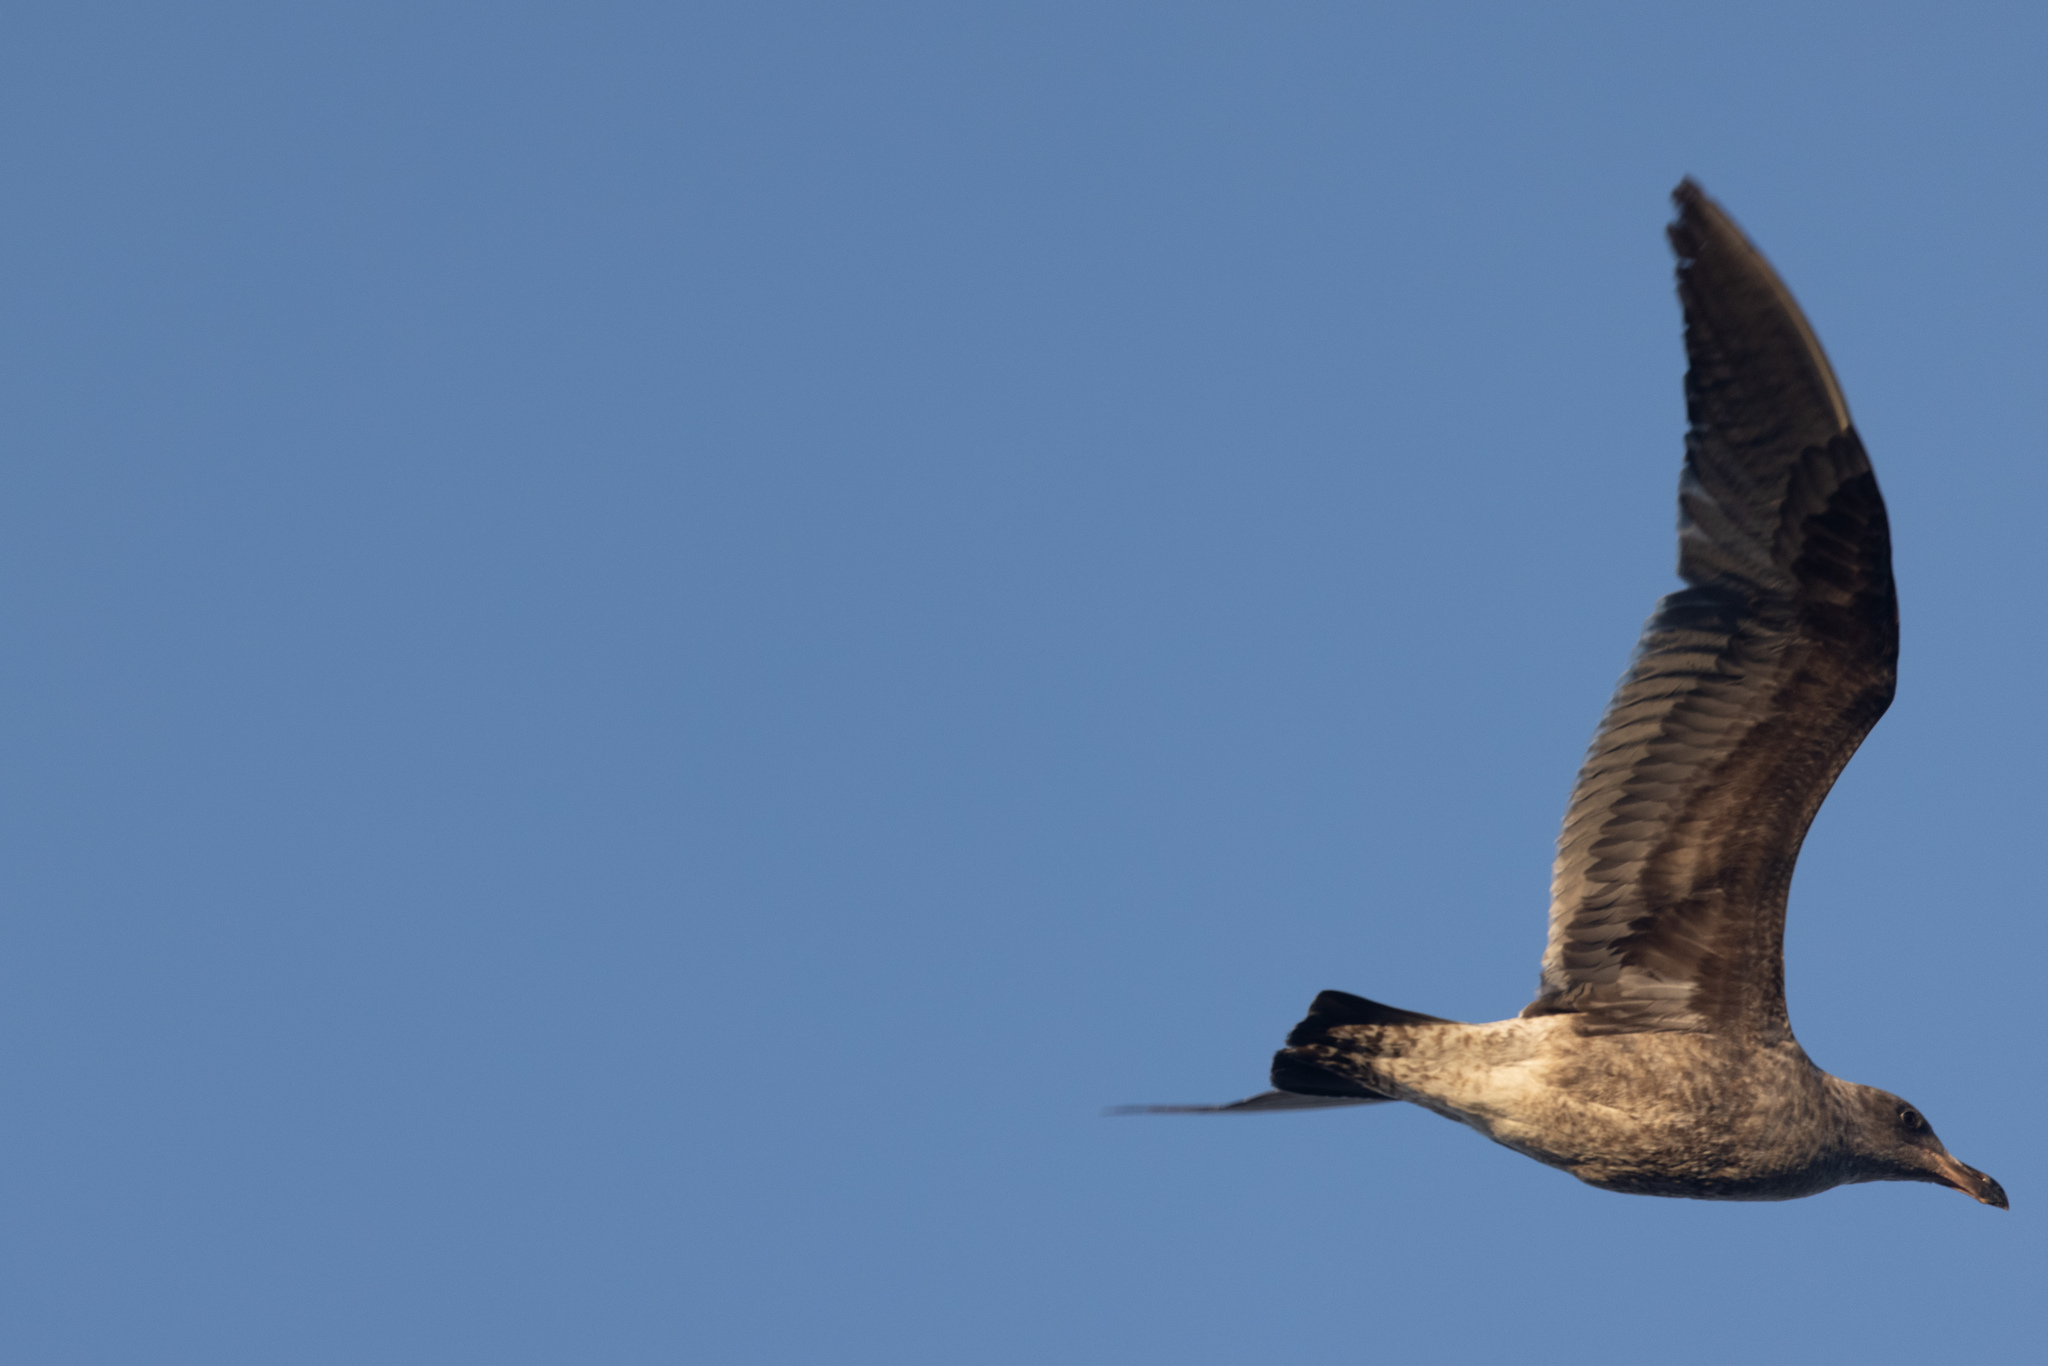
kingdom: Animalia
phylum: Chordata
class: Aves
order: Charadriiformes
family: Laridae
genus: Larus
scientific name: Larus occidentalis
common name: Western gull
